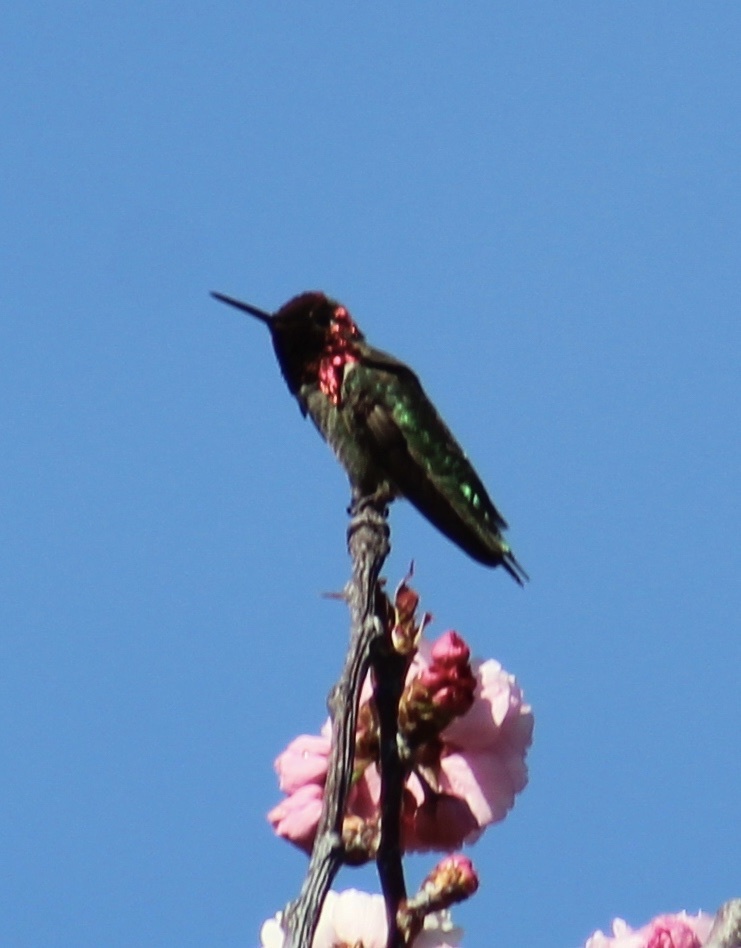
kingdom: Animalia
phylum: Chordata
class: Aves
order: Apodiformes
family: Trochilidae
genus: Calypte
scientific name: Calypte anna
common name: Anna's hummingbird
